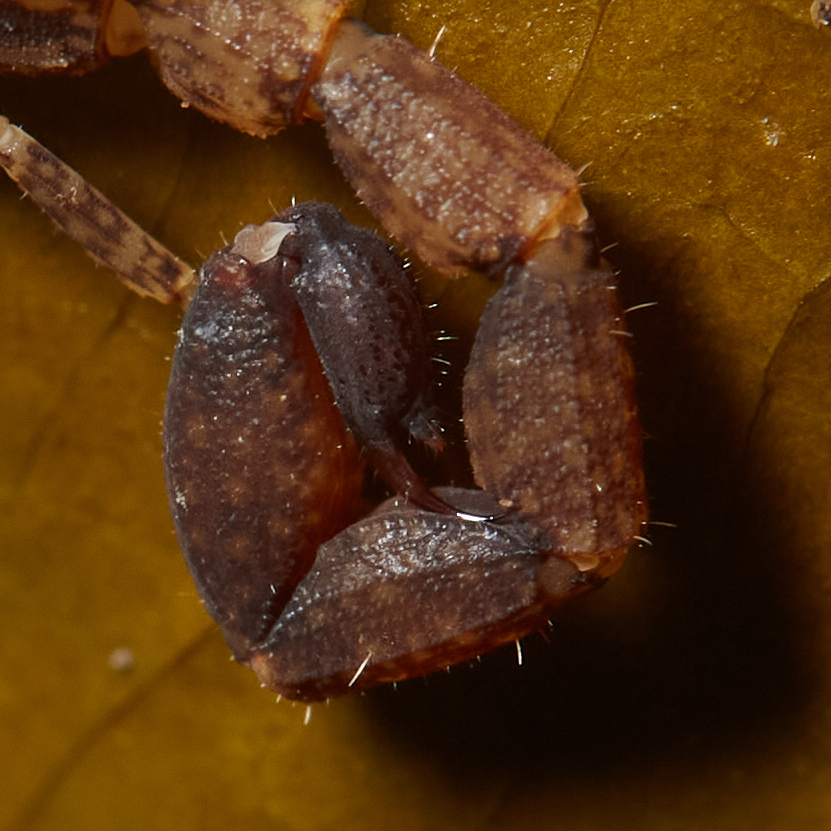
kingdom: Animalia
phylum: Arthropoda
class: Arachnida
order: Scorpiones
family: Buthidae
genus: Tityus
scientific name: Tityus ocelote
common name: Scorpions
